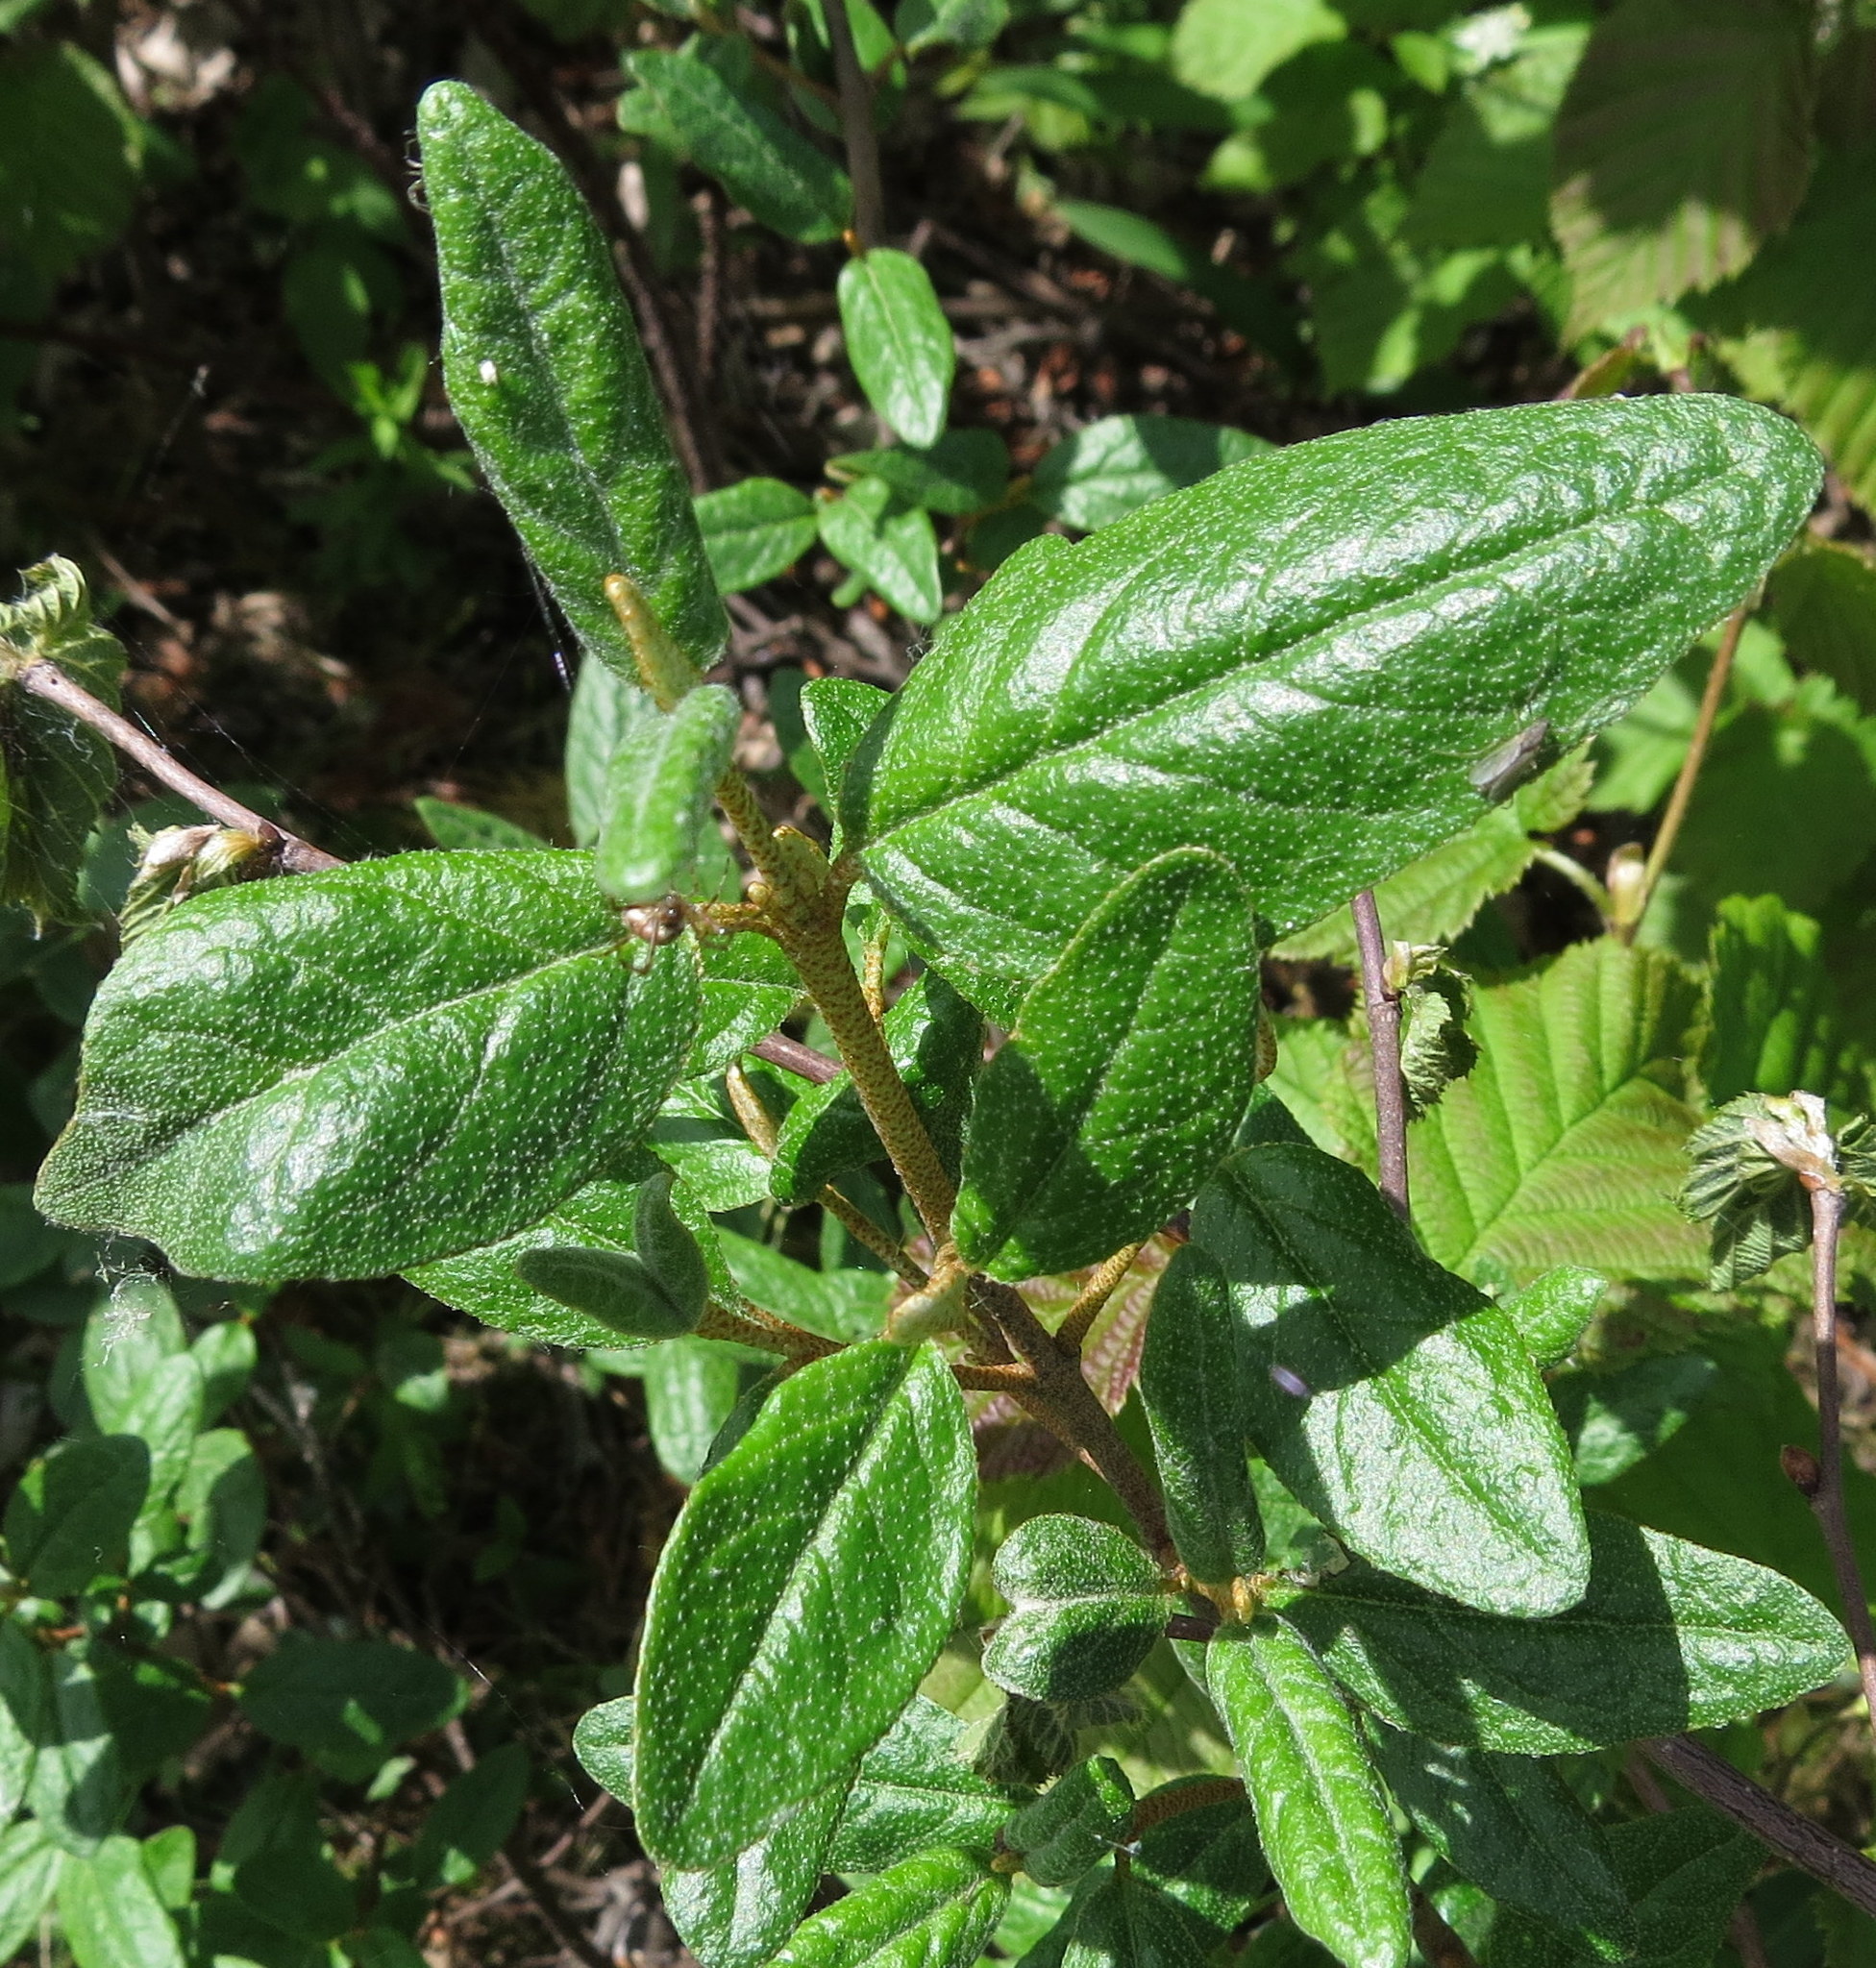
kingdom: Plantae
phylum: Tracheophyta
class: Magnoliopsida
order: Rosales
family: Elaeagnaceae
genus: Shepherdia
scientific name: Shepherdia canadensis
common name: Soapberry
